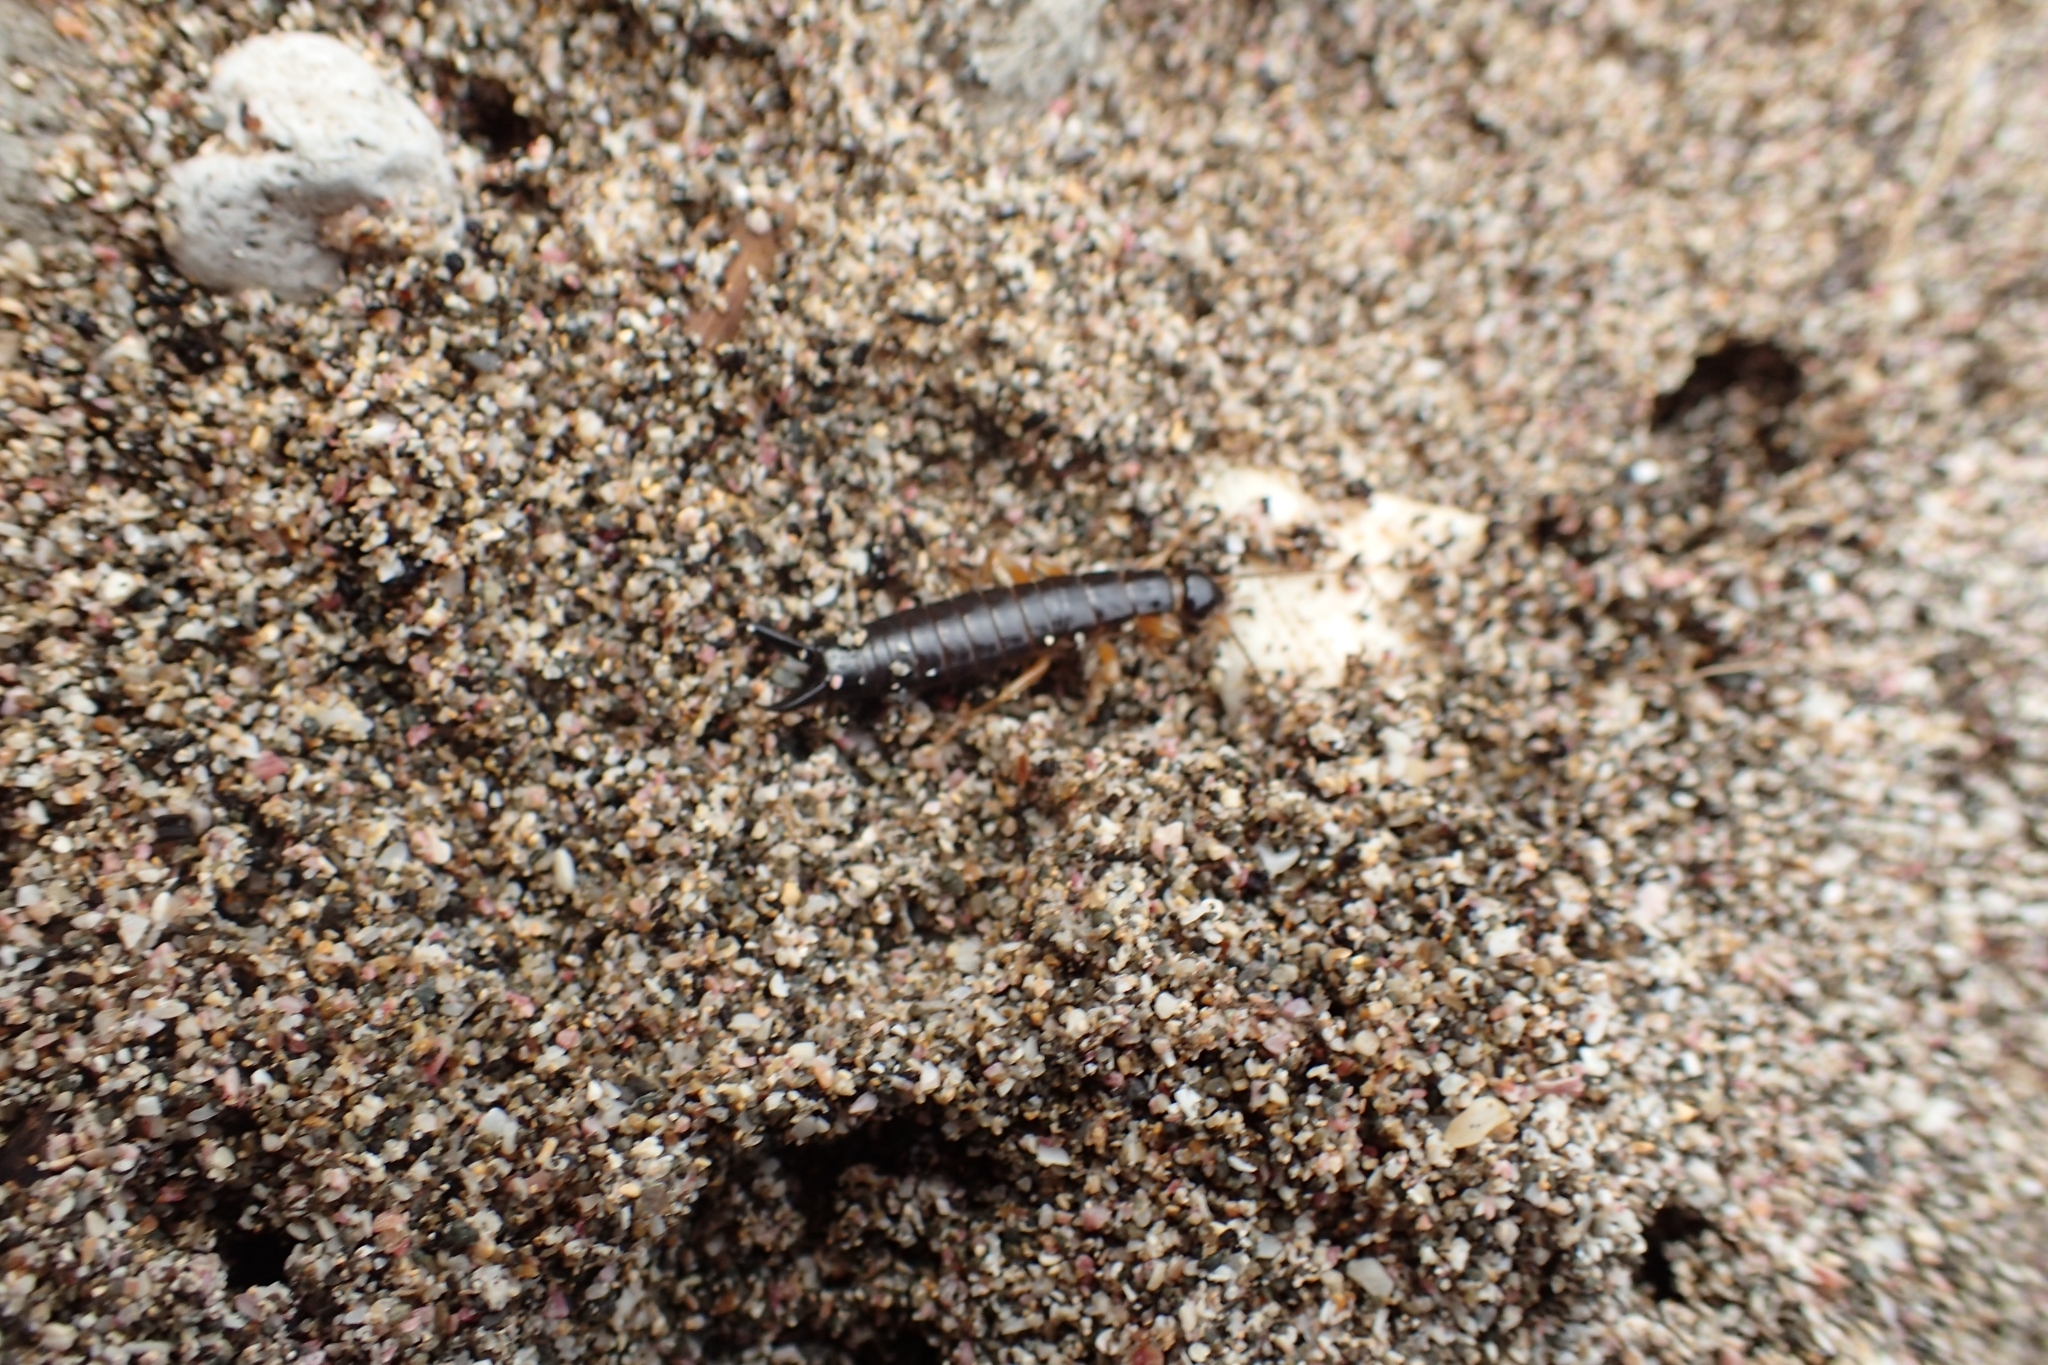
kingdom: Animalia
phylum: Arthropoda
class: Insecta
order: Dermaptera
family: Anisolabididae
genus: Anisolabis
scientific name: Anisolabis littorea
